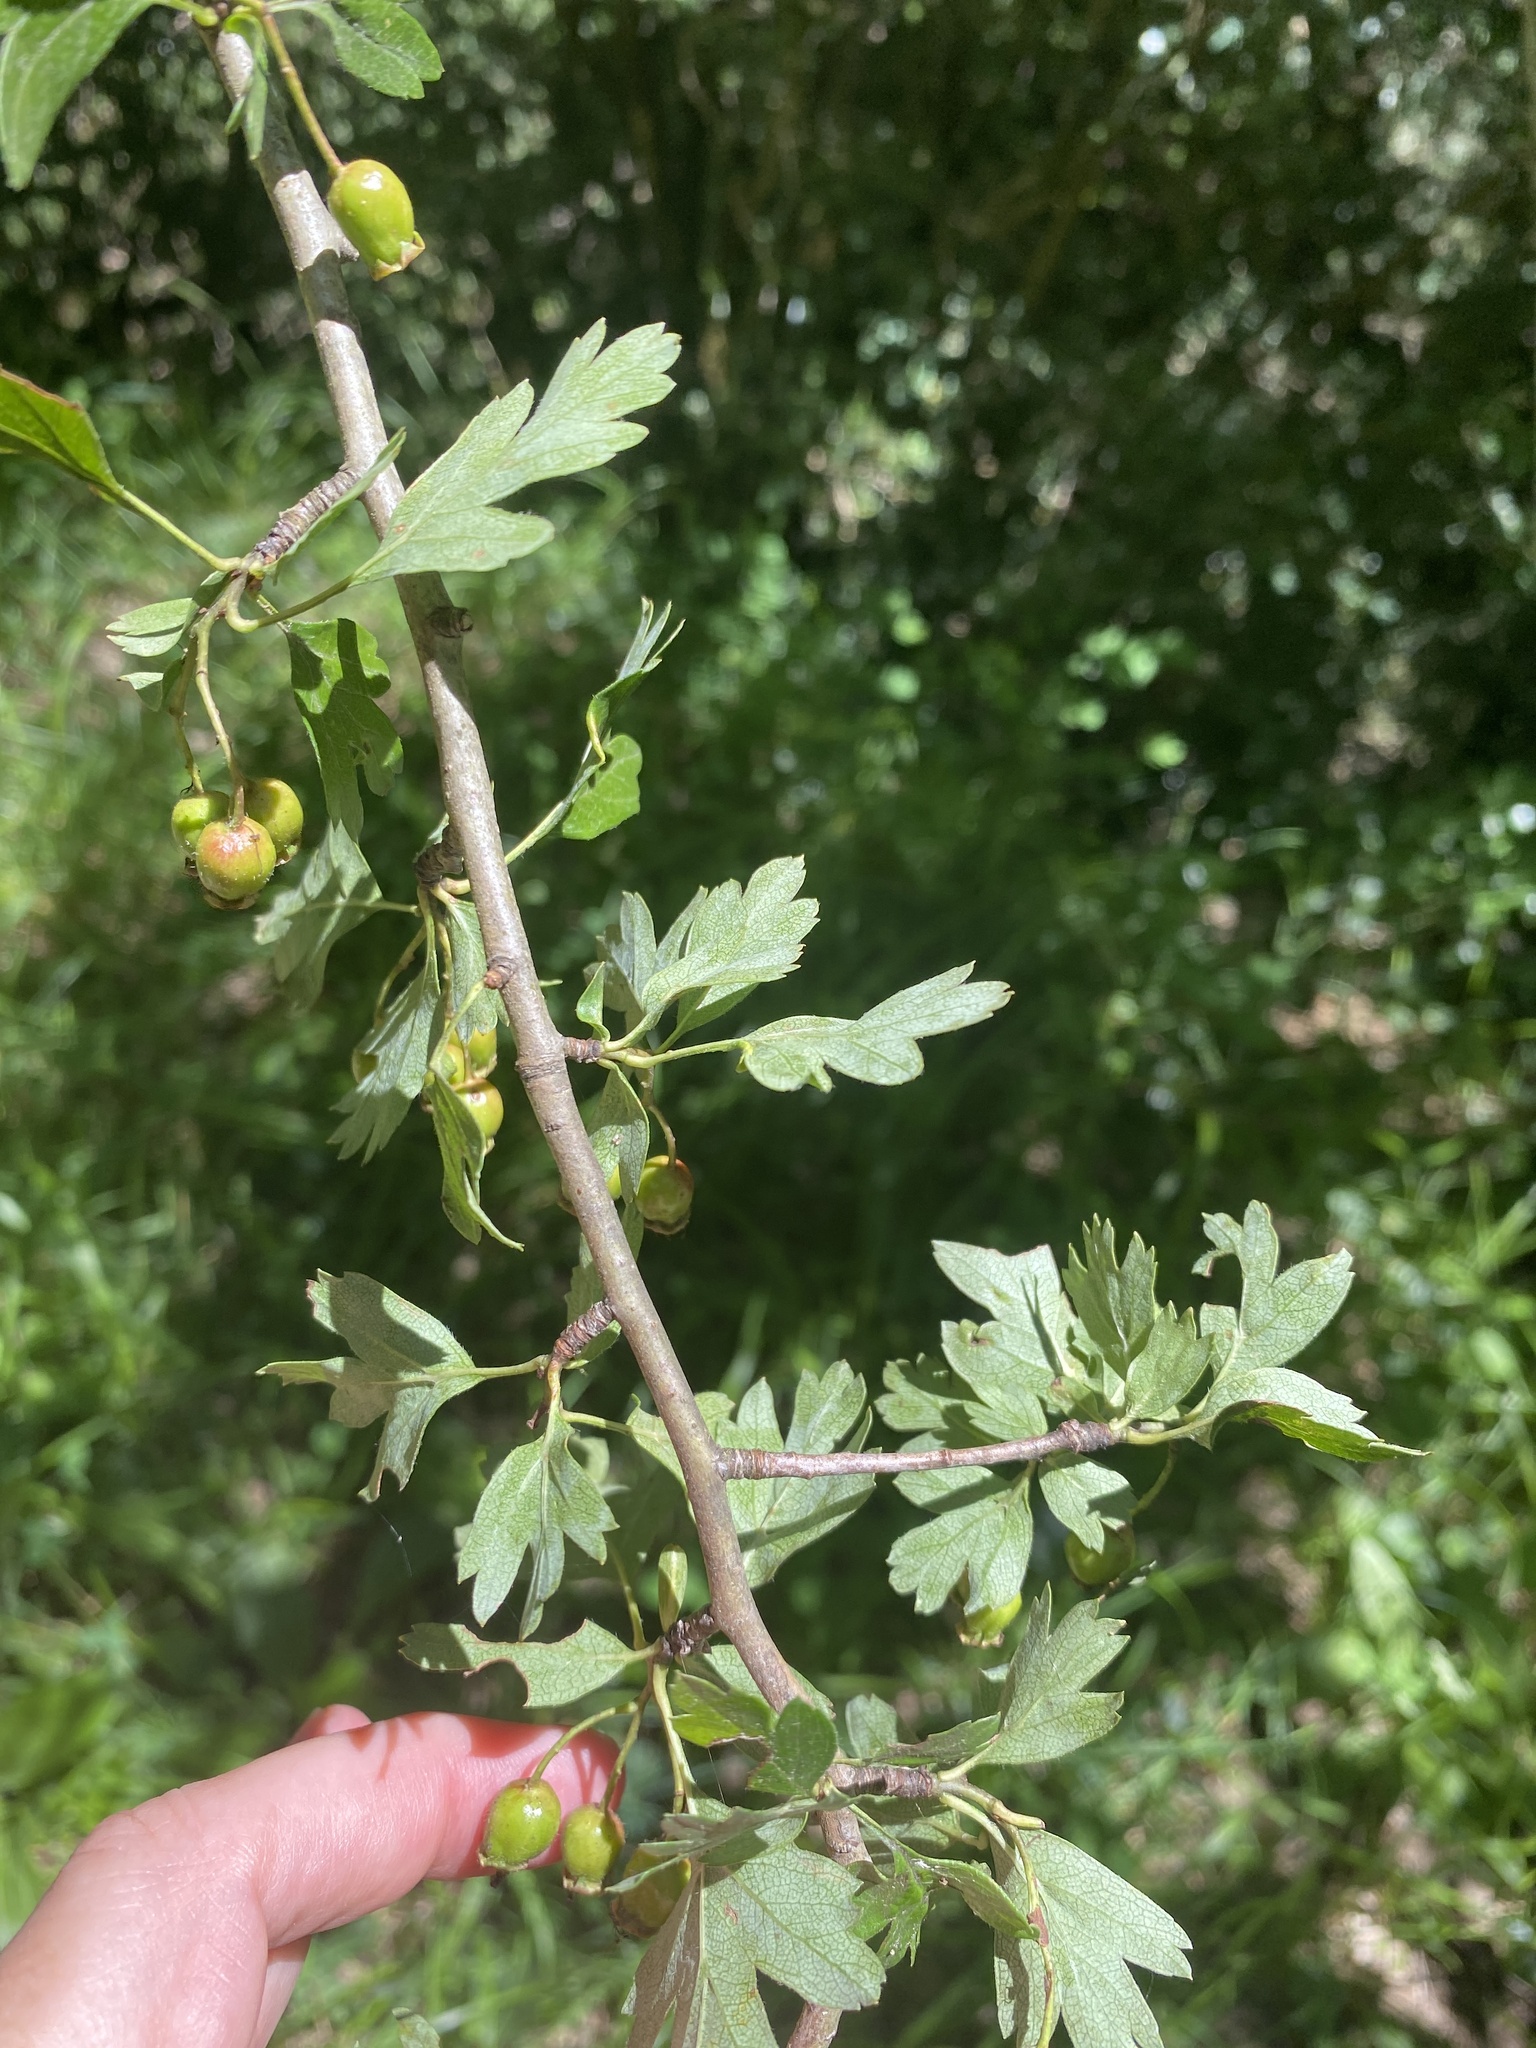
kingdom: Plantae
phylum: Tracheophyta
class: Magnoliopsida
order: Rosales
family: Rosaceae
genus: Crataegus
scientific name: Crataegus monogyna
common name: Hawthorn
